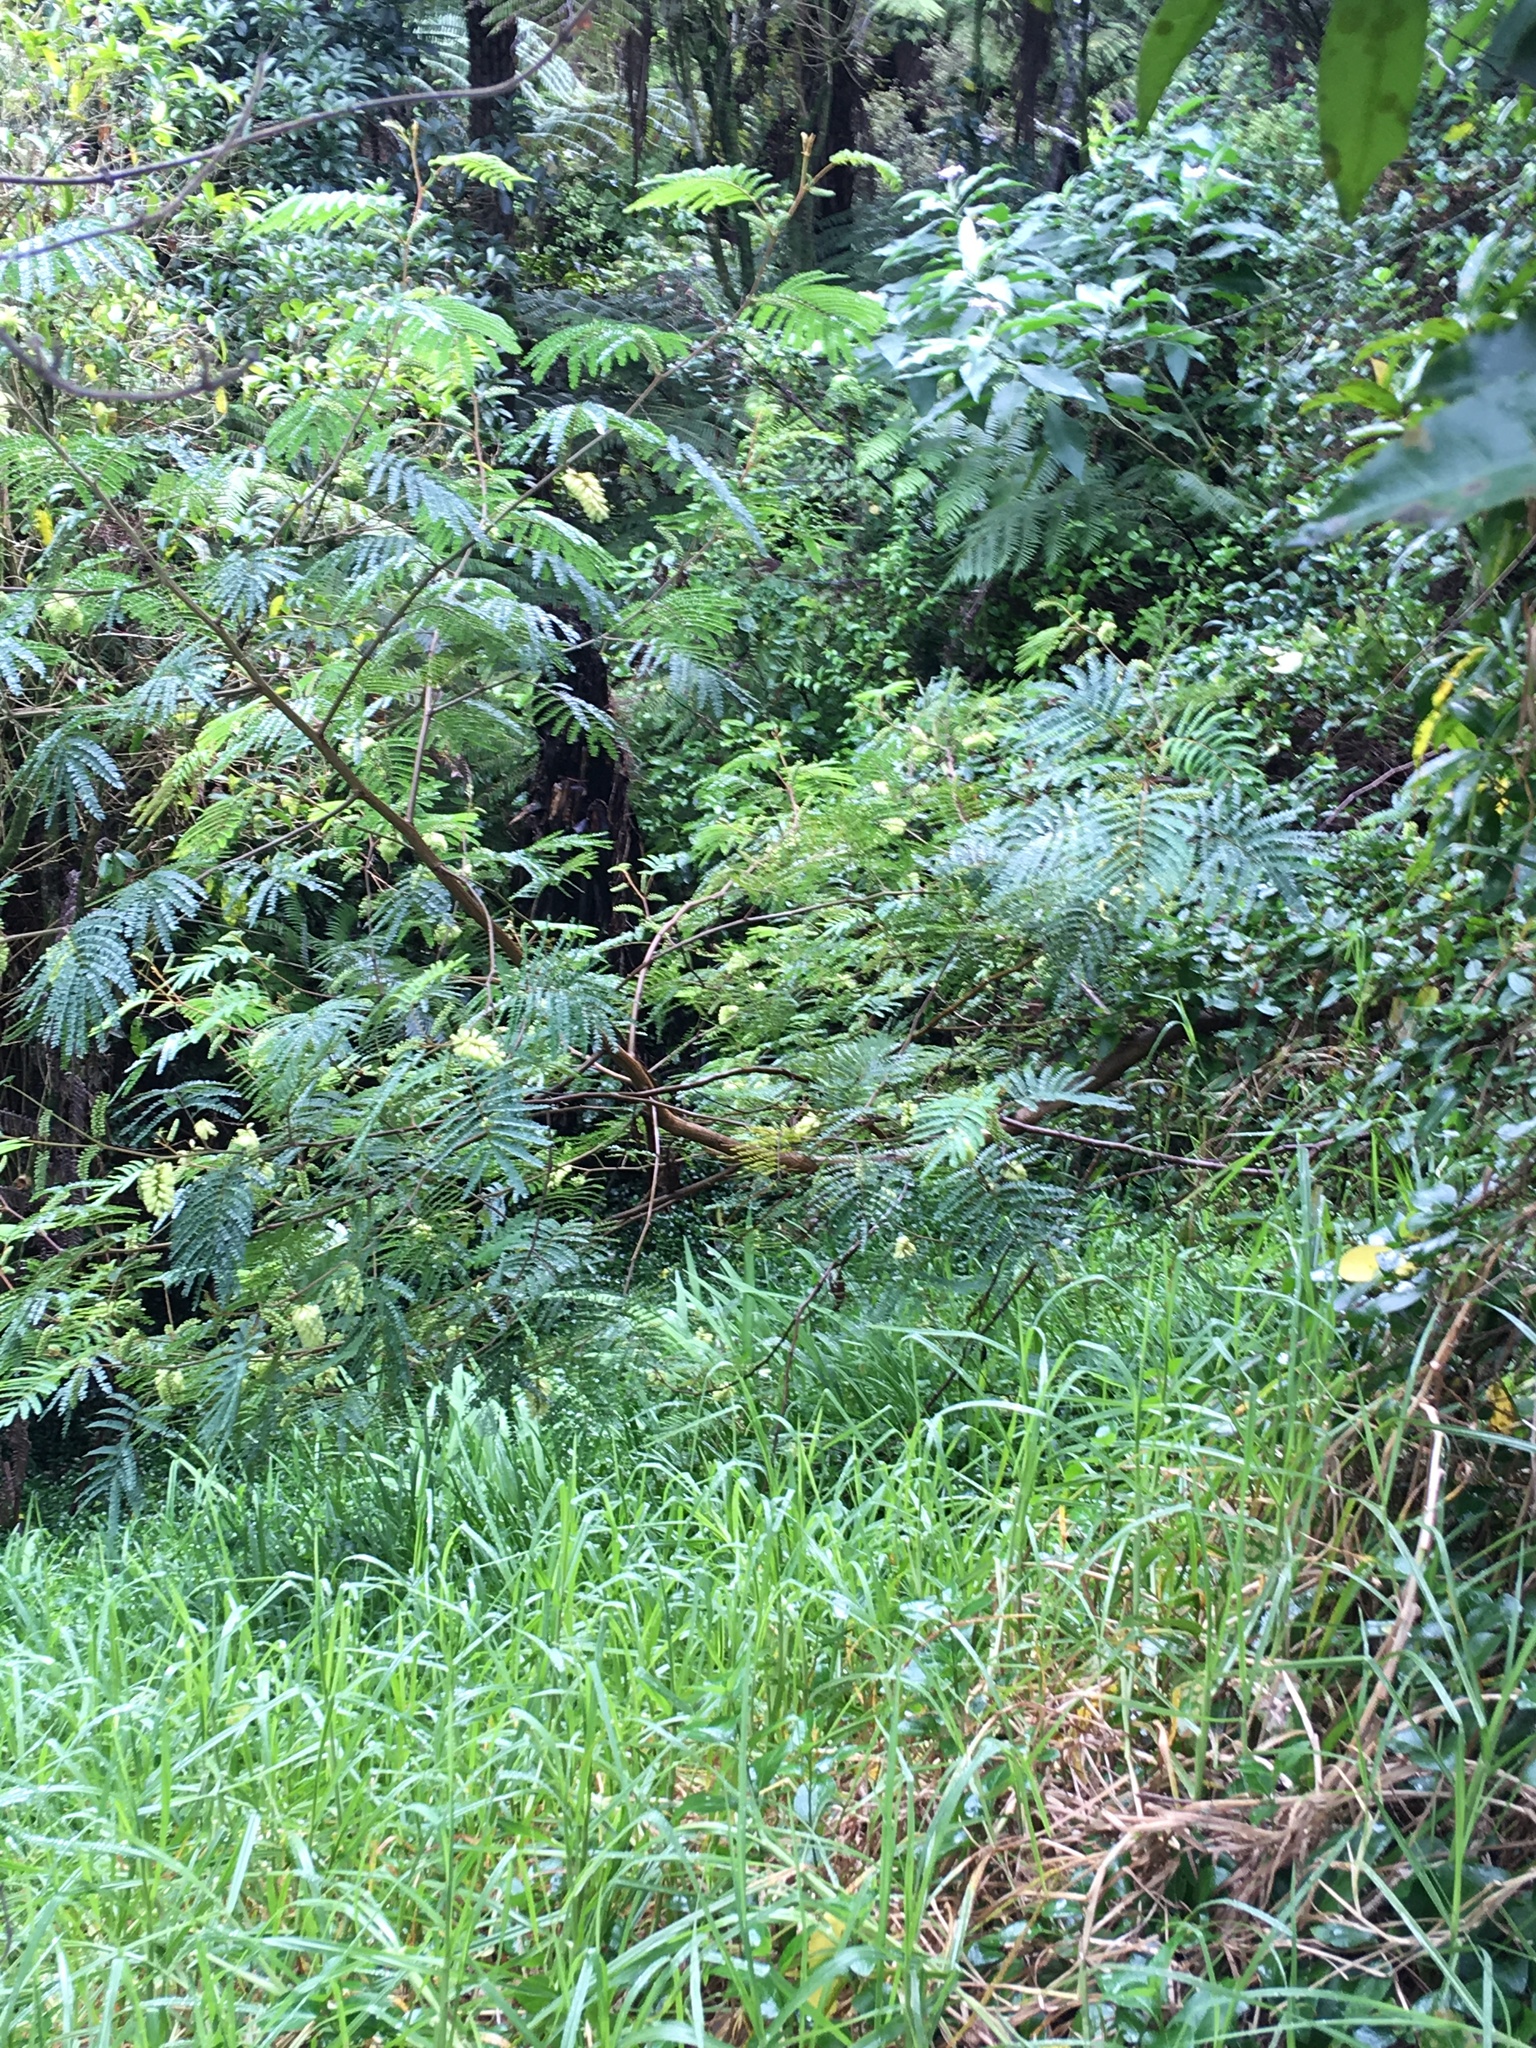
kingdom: Plantae
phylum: Tracheophyta
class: Magnoliopsida
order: Fabales
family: Fabaceae
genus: Paraserianthes
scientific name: Paraserianthes lophantha
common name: Plume albizia
